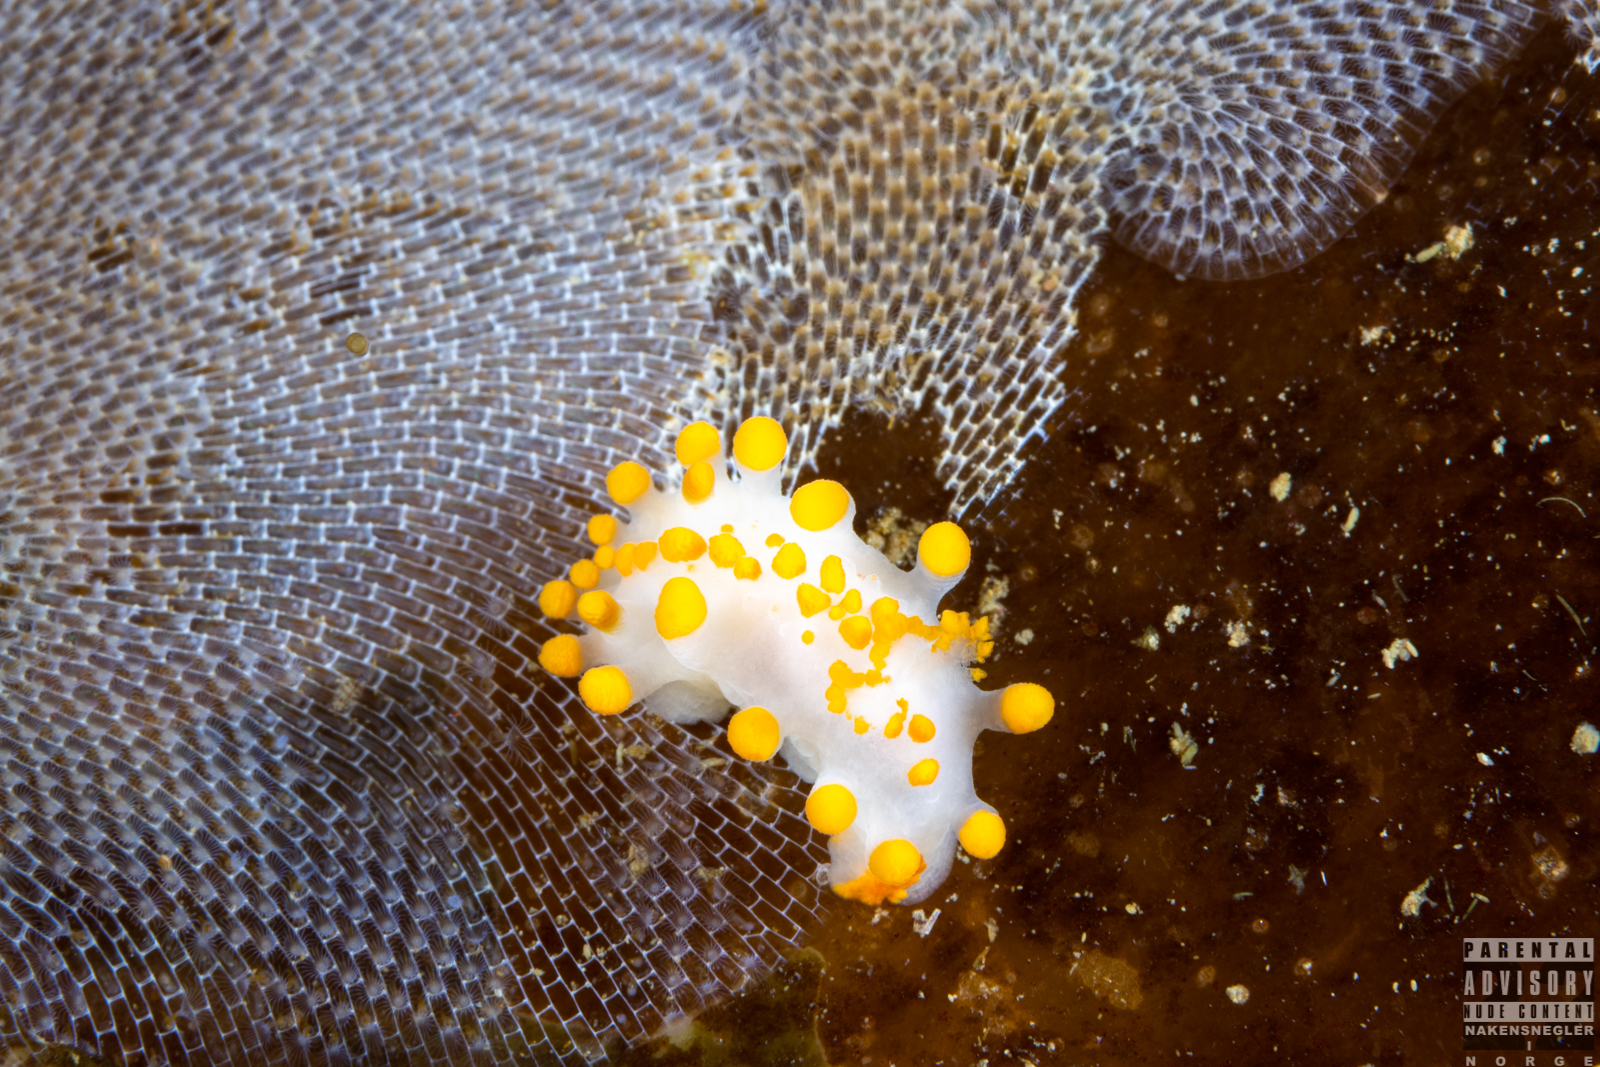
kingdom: Animalia
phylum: Mollusca
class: Gastropoda
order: Nudibranchia
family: Polyceridae
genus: Limacia
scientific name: Limacia clavigera
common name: Orange-clubbed sea slug
